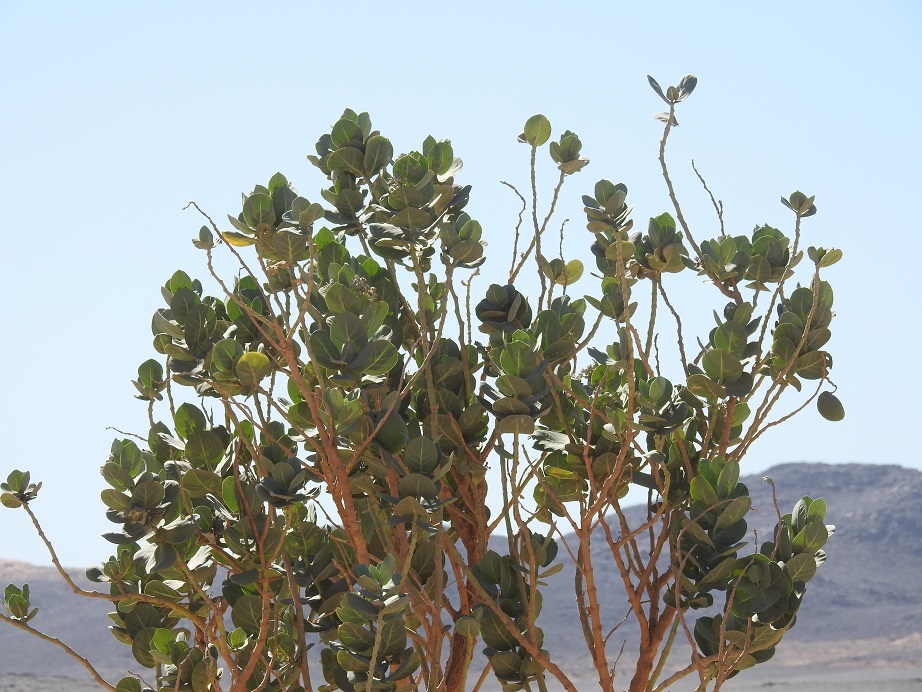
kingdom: Plantae
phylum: Tracheophyta
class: Magnoliopsida
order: Gentianales
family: Apocynaceae
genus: Calotropis
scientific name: Calotropis procera
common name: Roostertree
